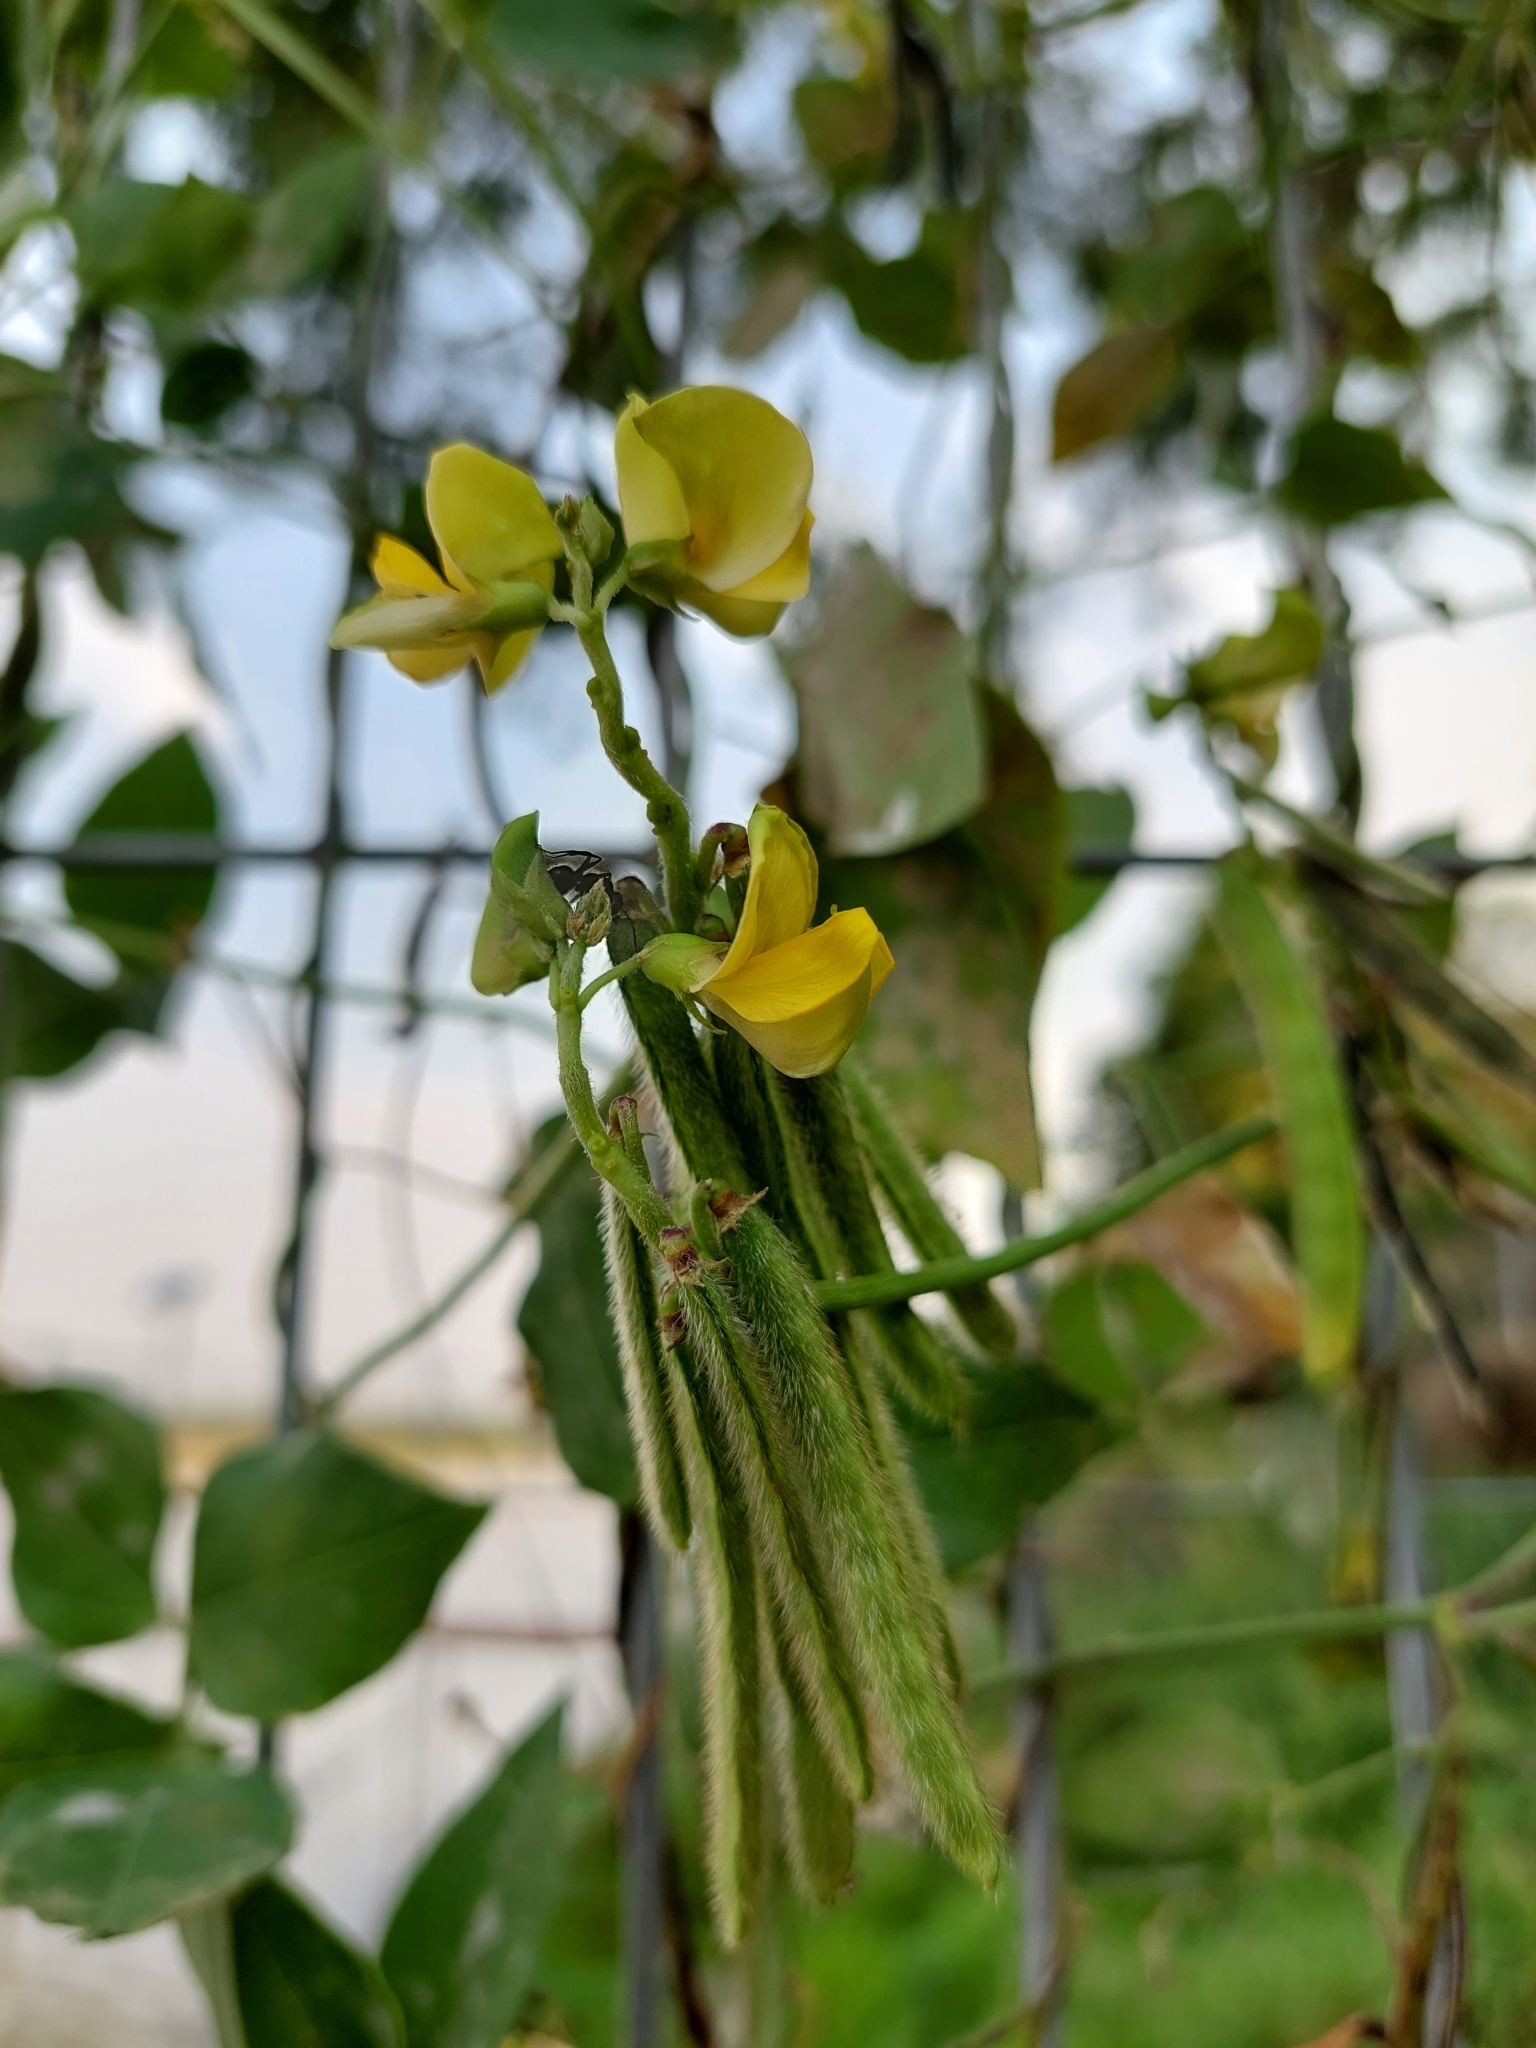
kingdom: Plantae
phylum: Tracheophyta
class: Magnoliopsida
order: Fabales
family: Fabaceae
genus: Vigna
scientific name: Vigna luteola
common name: Hairypod cowpea
